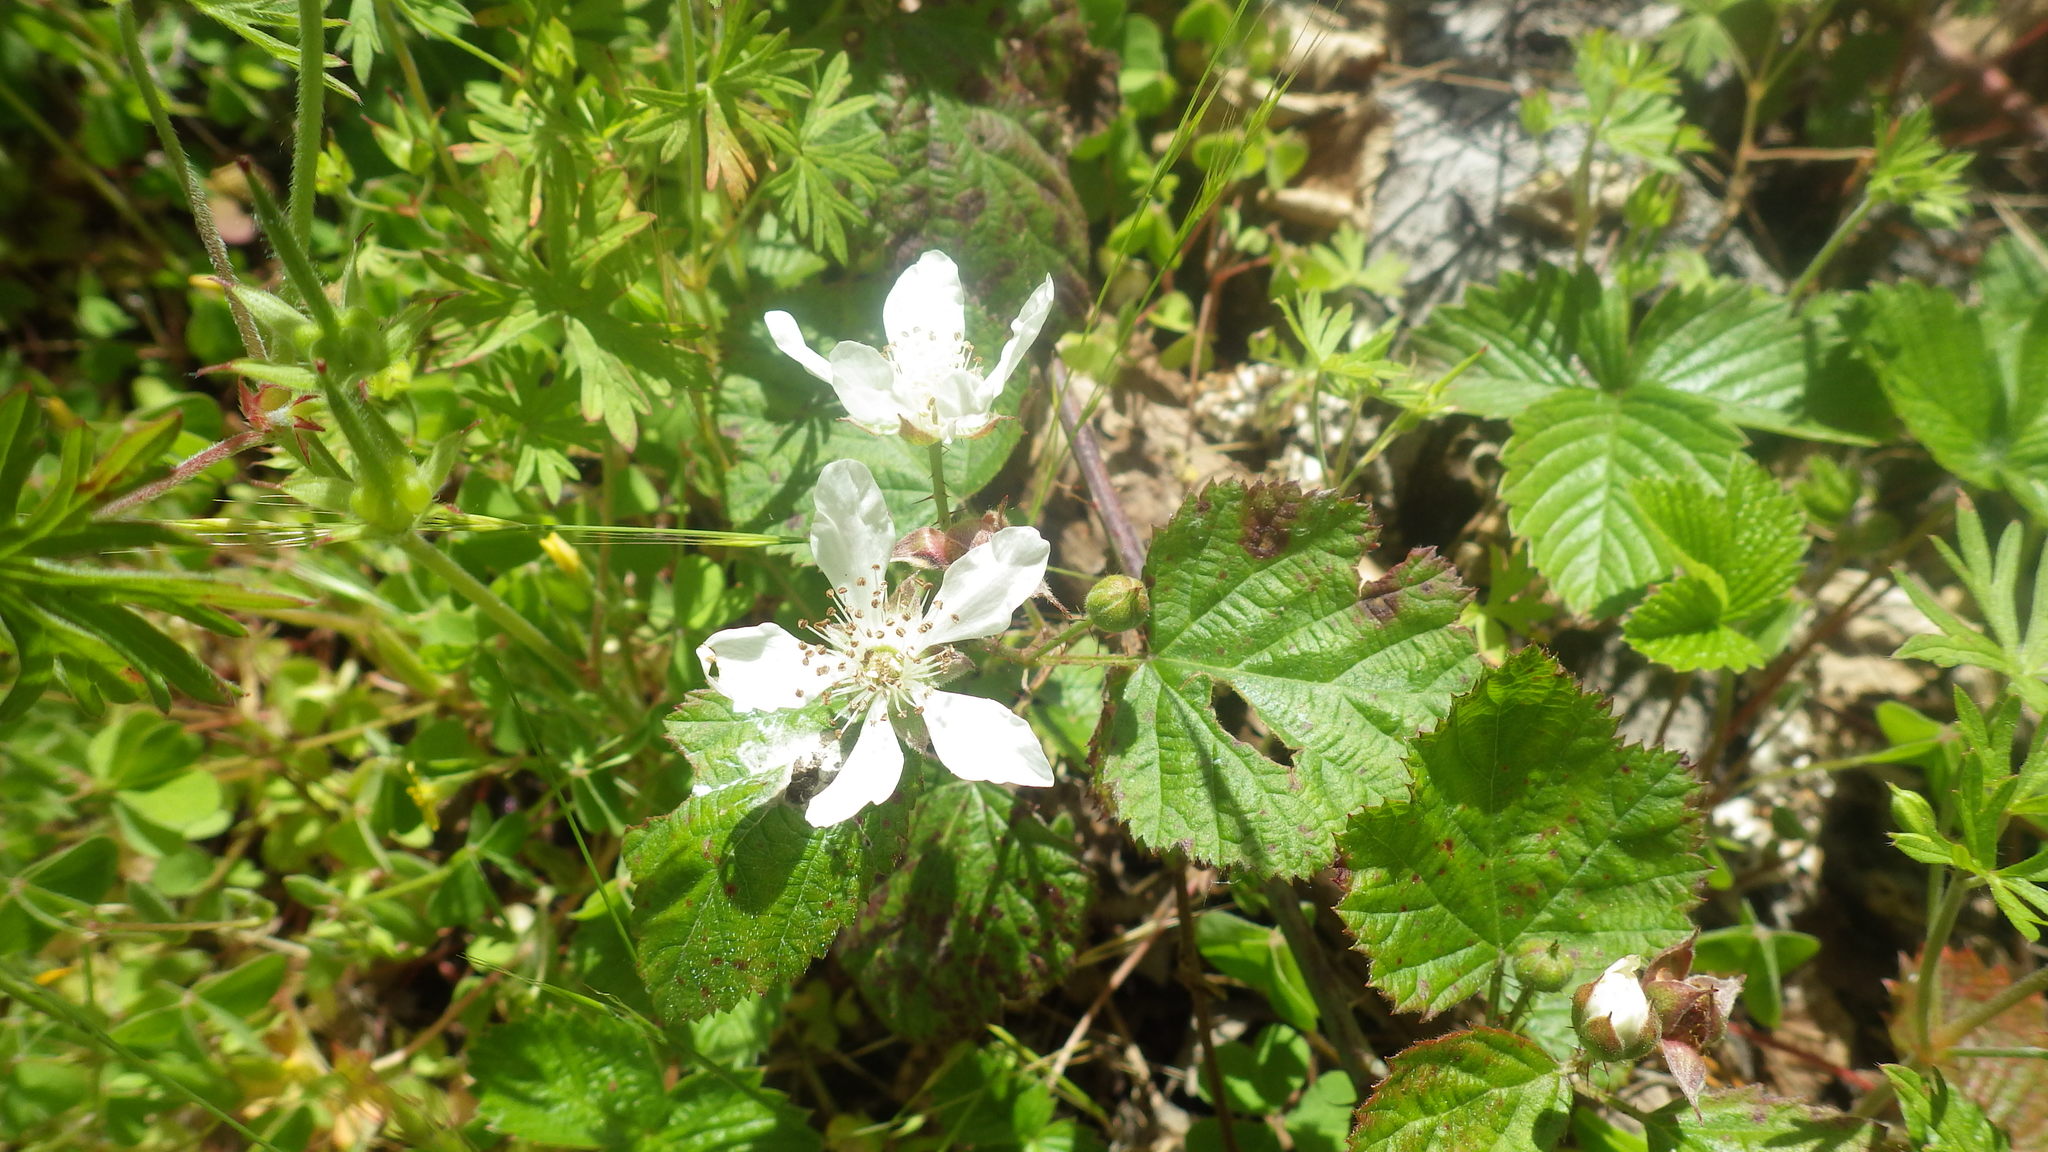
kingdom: Plantae
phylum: Tracheophyta
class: Magnoliopsida
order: Rosales
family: Rosaceae
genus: Rubus
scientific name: Rubus ursinus
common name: Pacific blackberry
